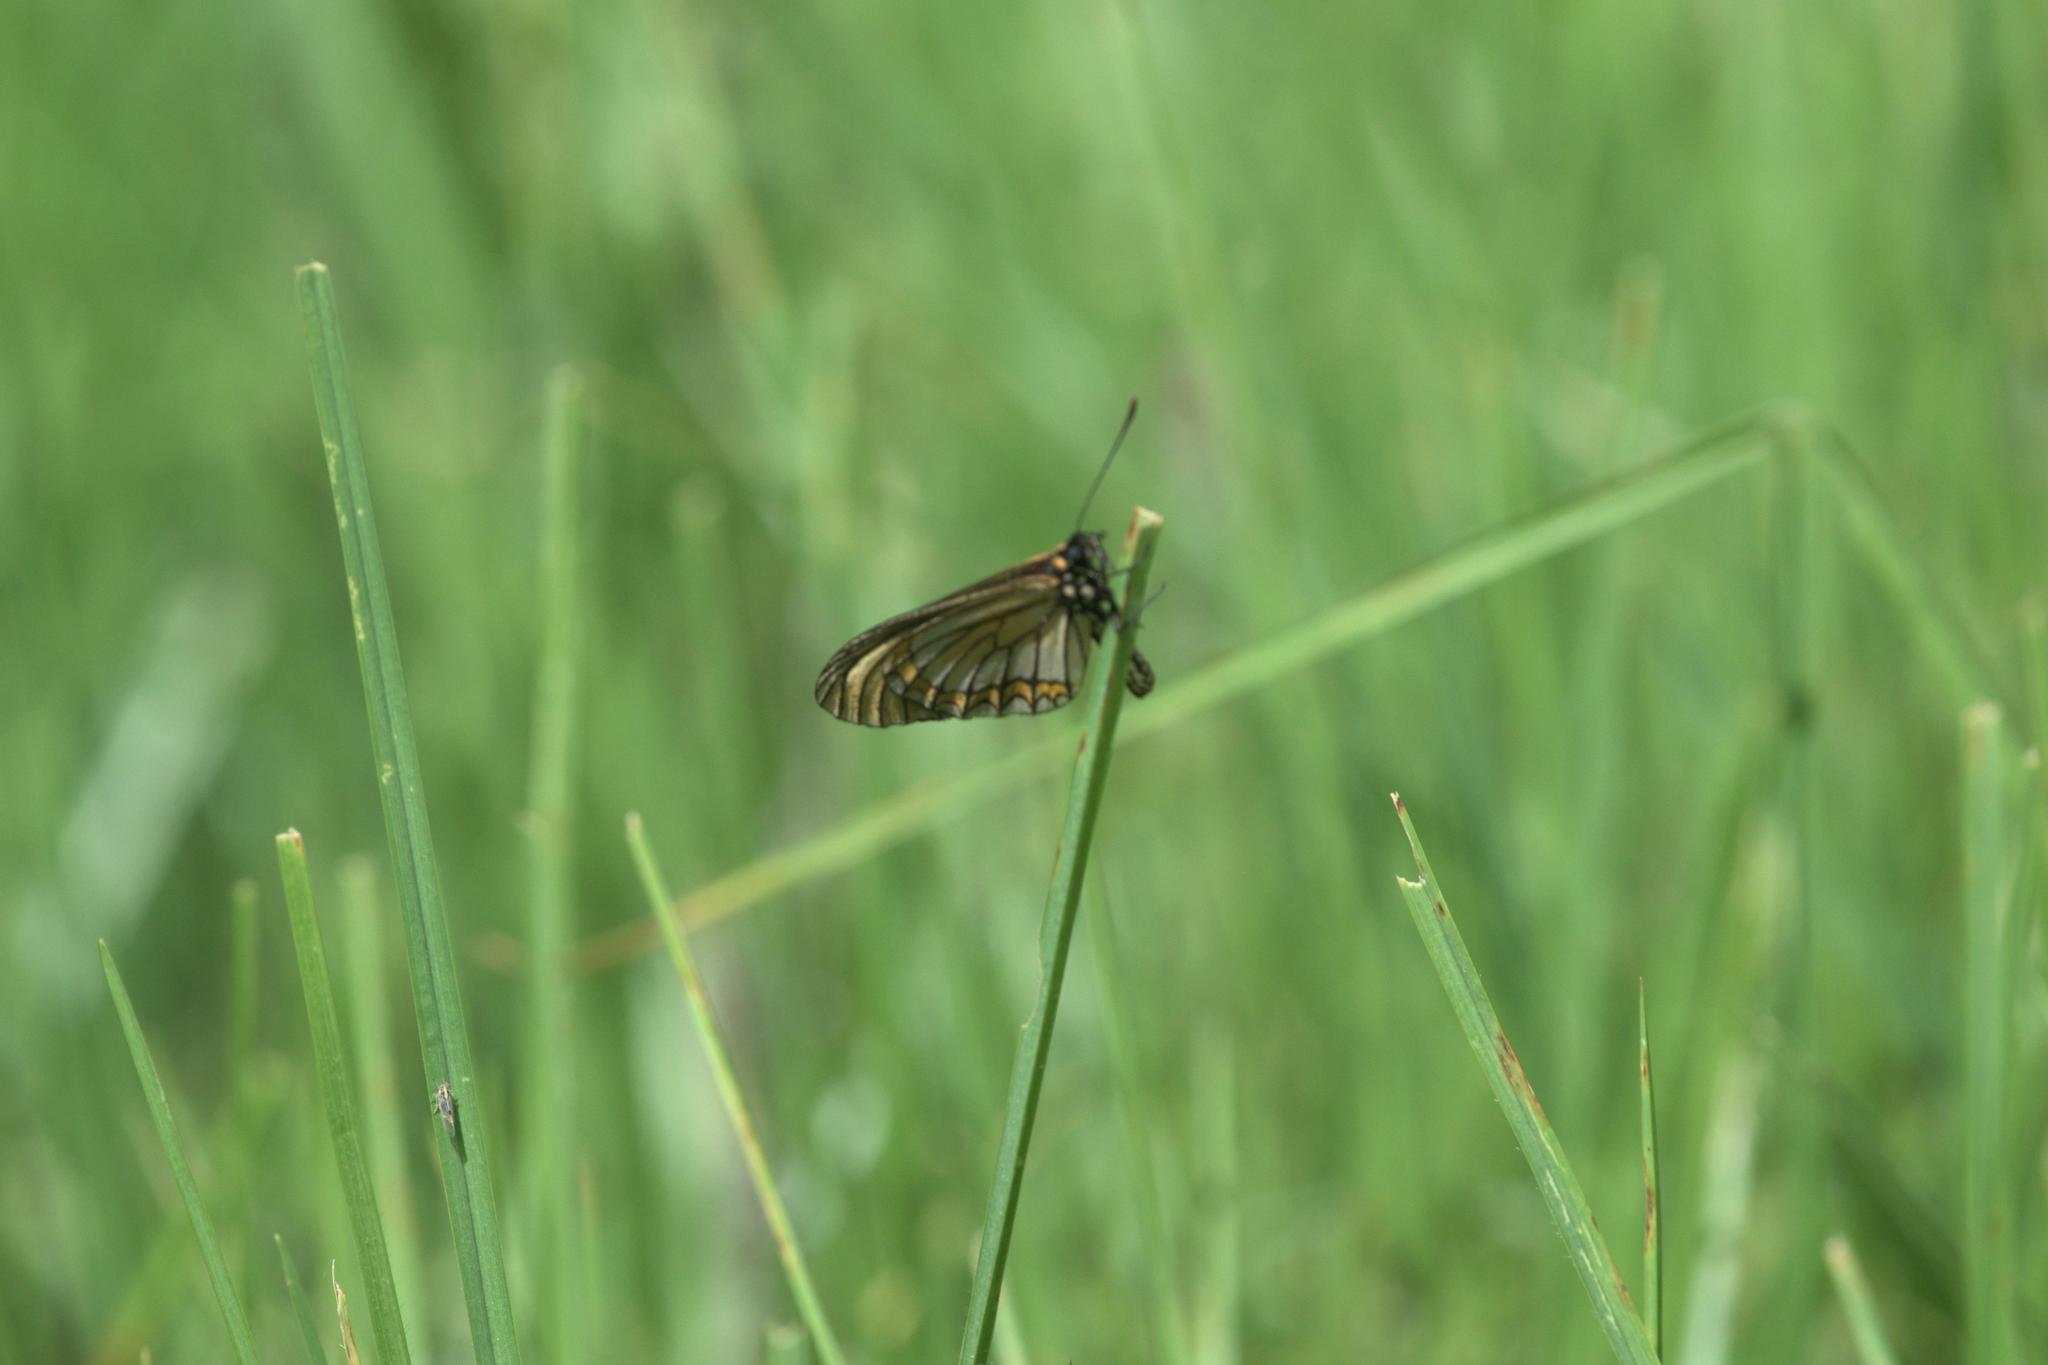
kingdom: Animalia
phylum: Arthropoda
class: Insecta
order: Lepidoptera
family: Nymphalidae
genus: Acraea
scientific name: Acraea Telchinia issoria
